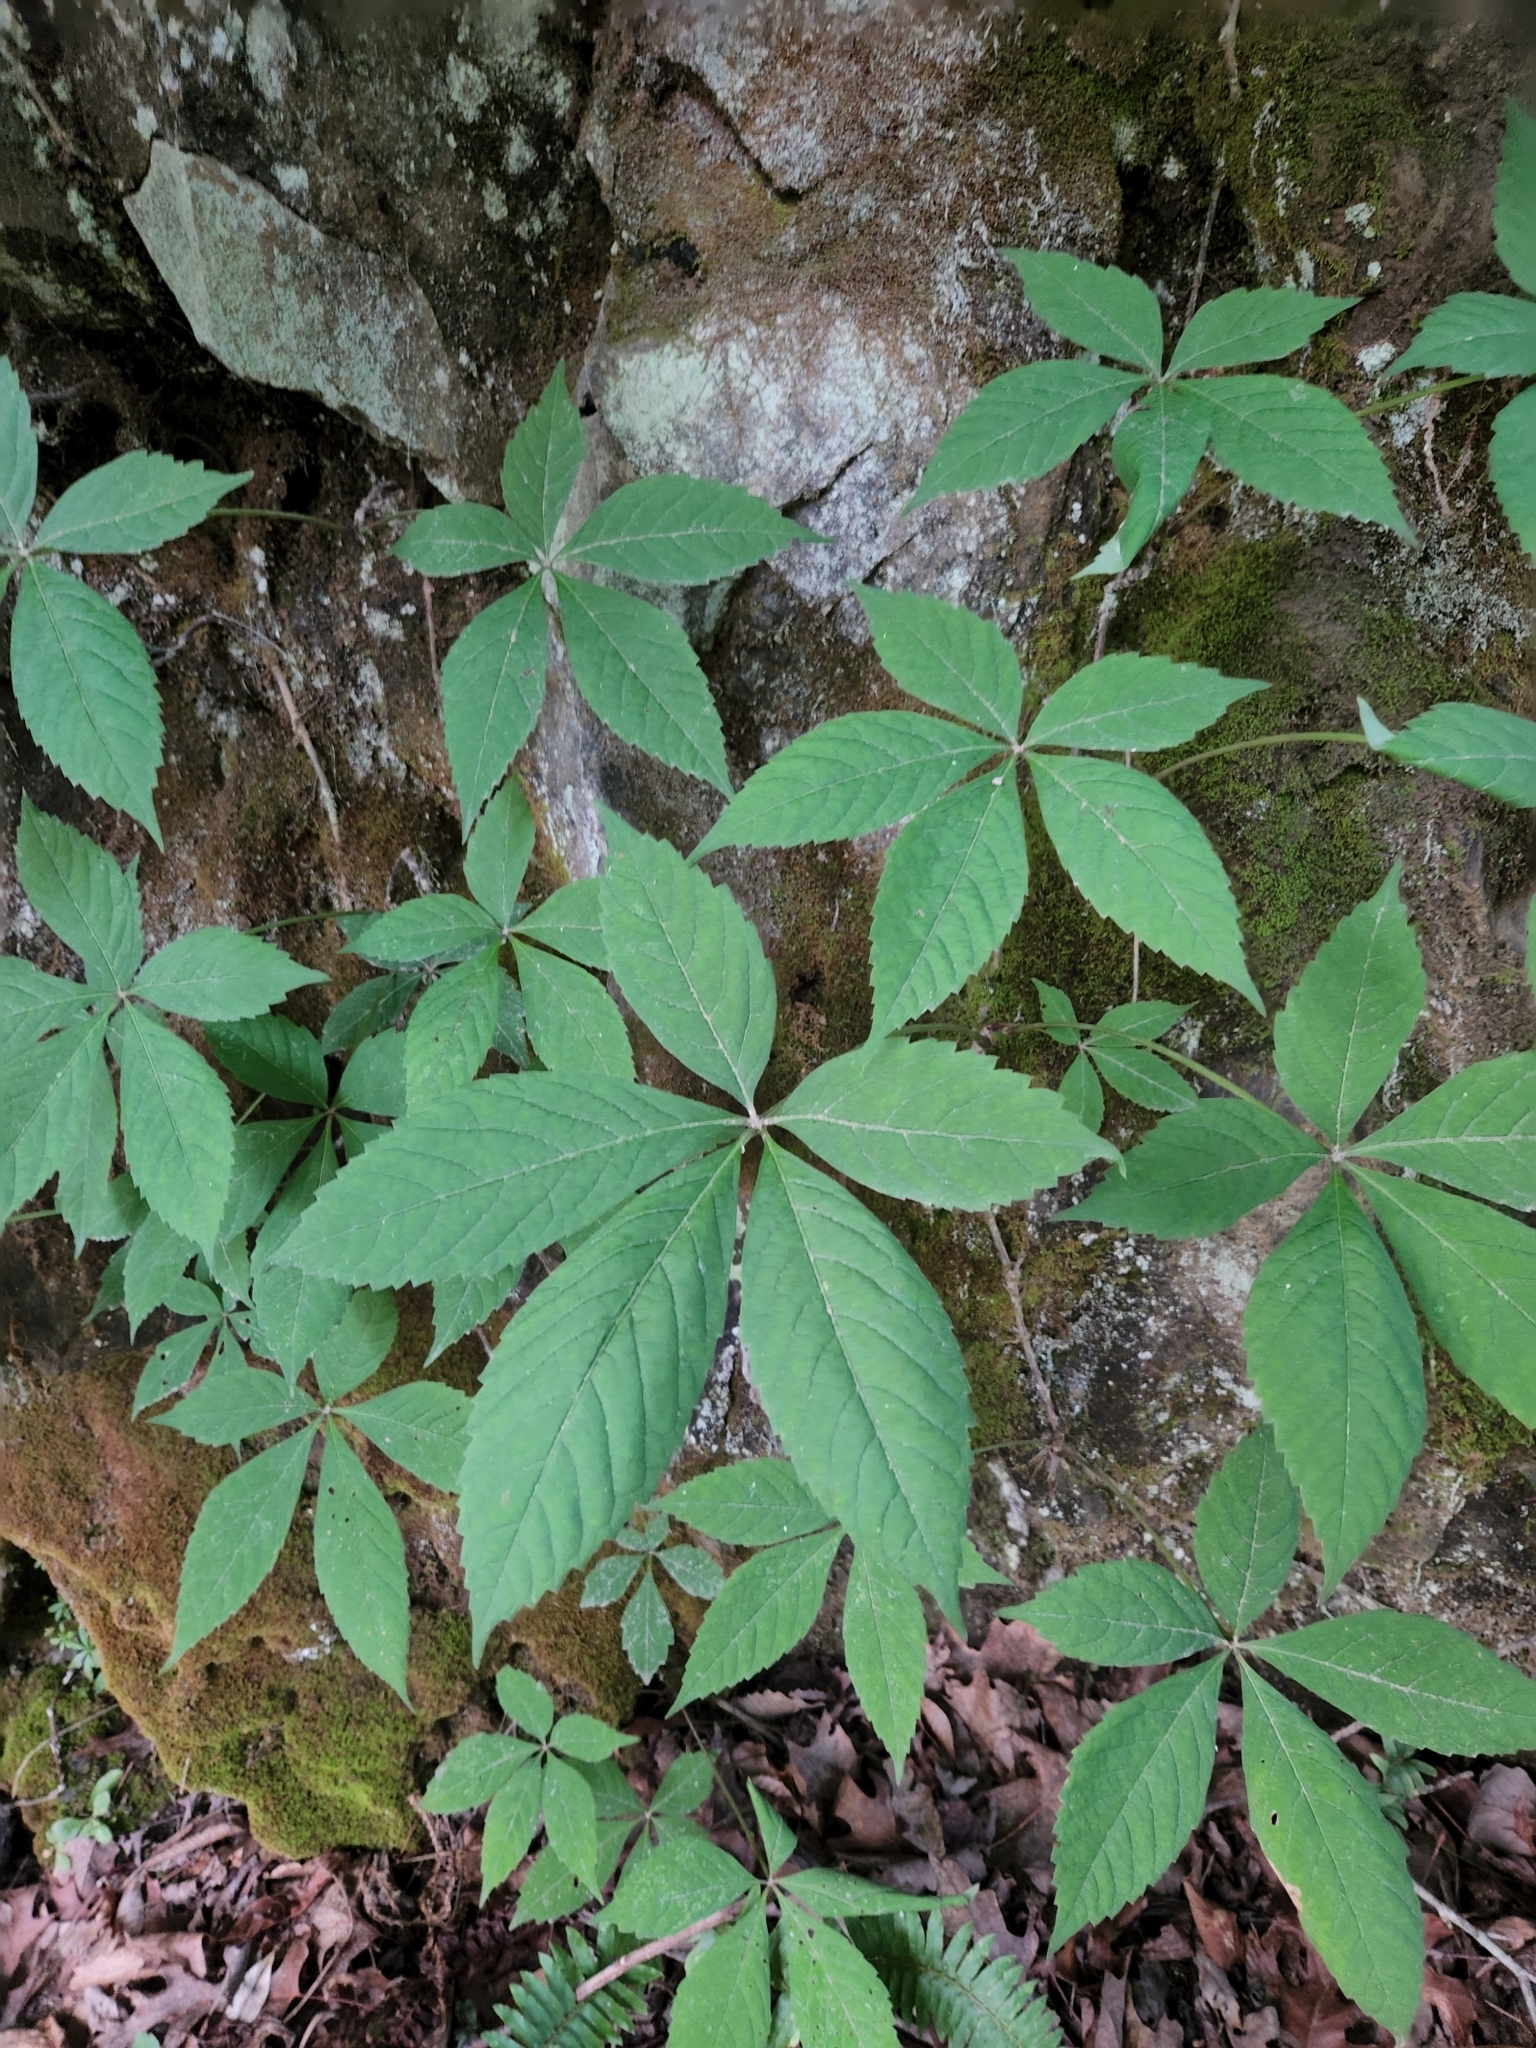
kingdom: Plantae
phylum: Tracheophyta
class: Magnoliopsida
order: Vitales
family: Vitaceae
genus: Parthenocissus
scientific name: Parthenocissus quinquefolia
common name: Virginia-creeper
